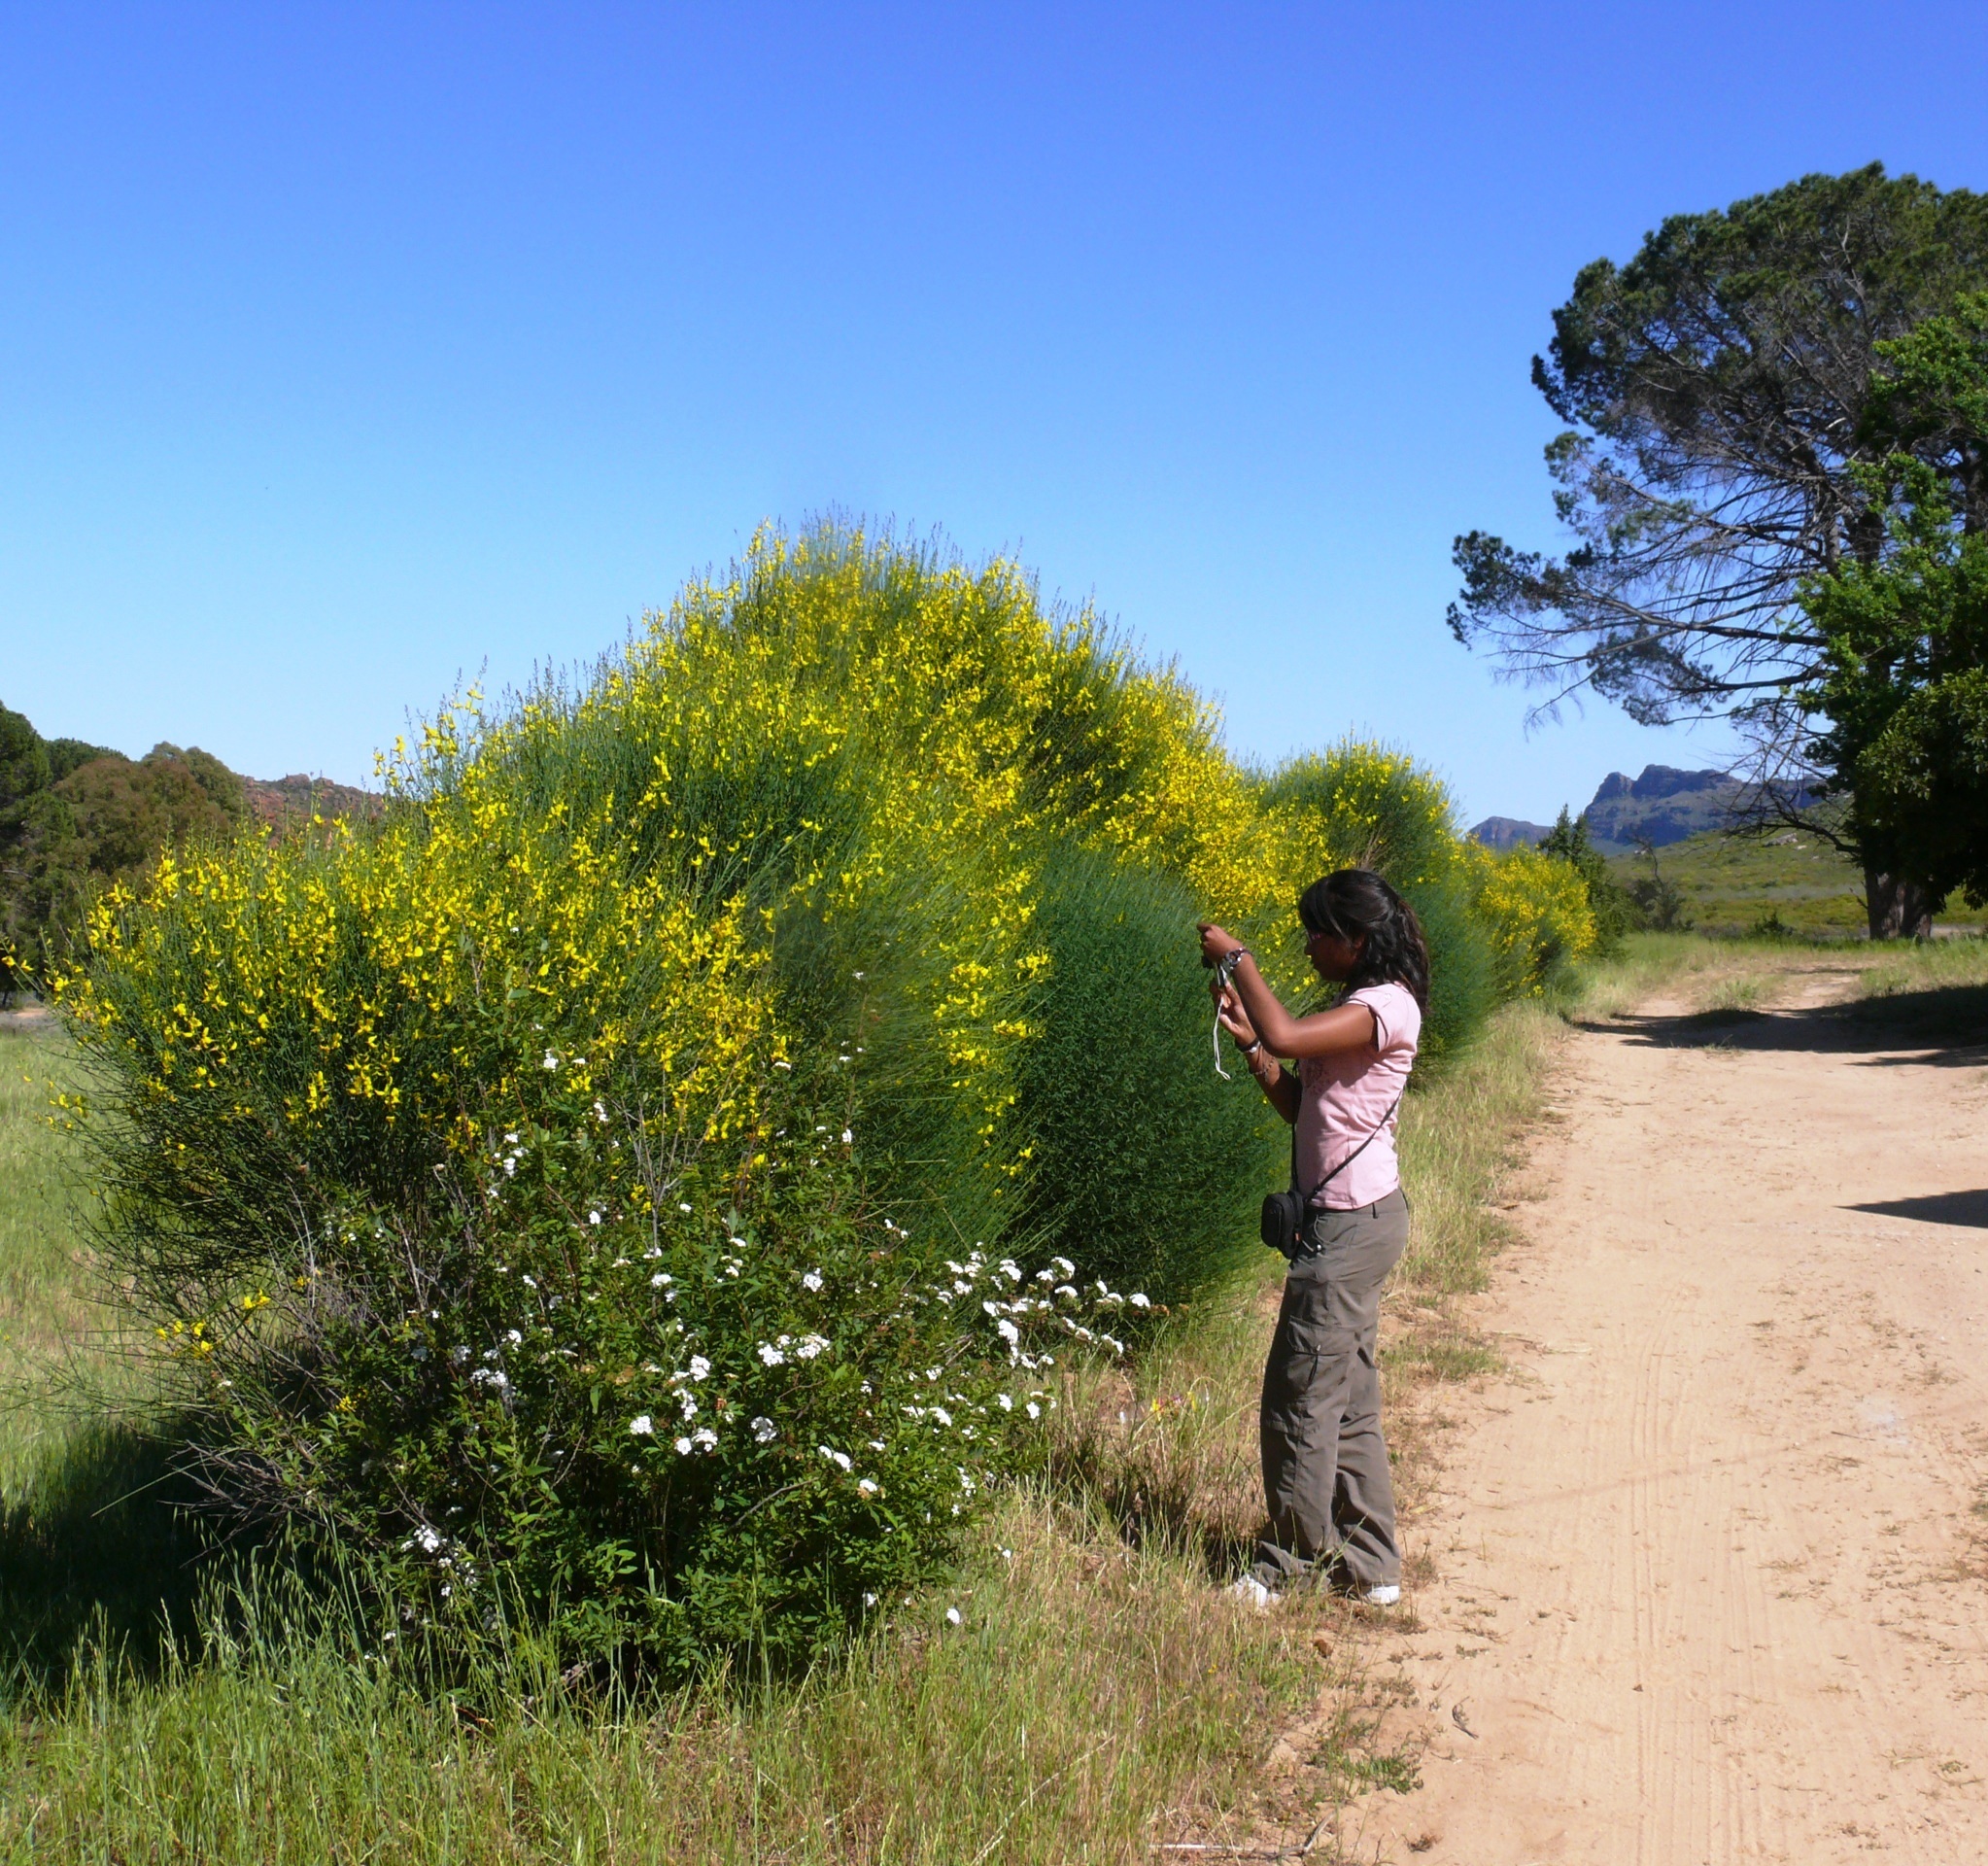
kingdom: Plantae
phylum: Tracheophyta
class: Magnoliopsida
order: Fabales
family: Fabaceae
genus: Spartium
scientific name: Spartium junceum
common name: Spanish broom
